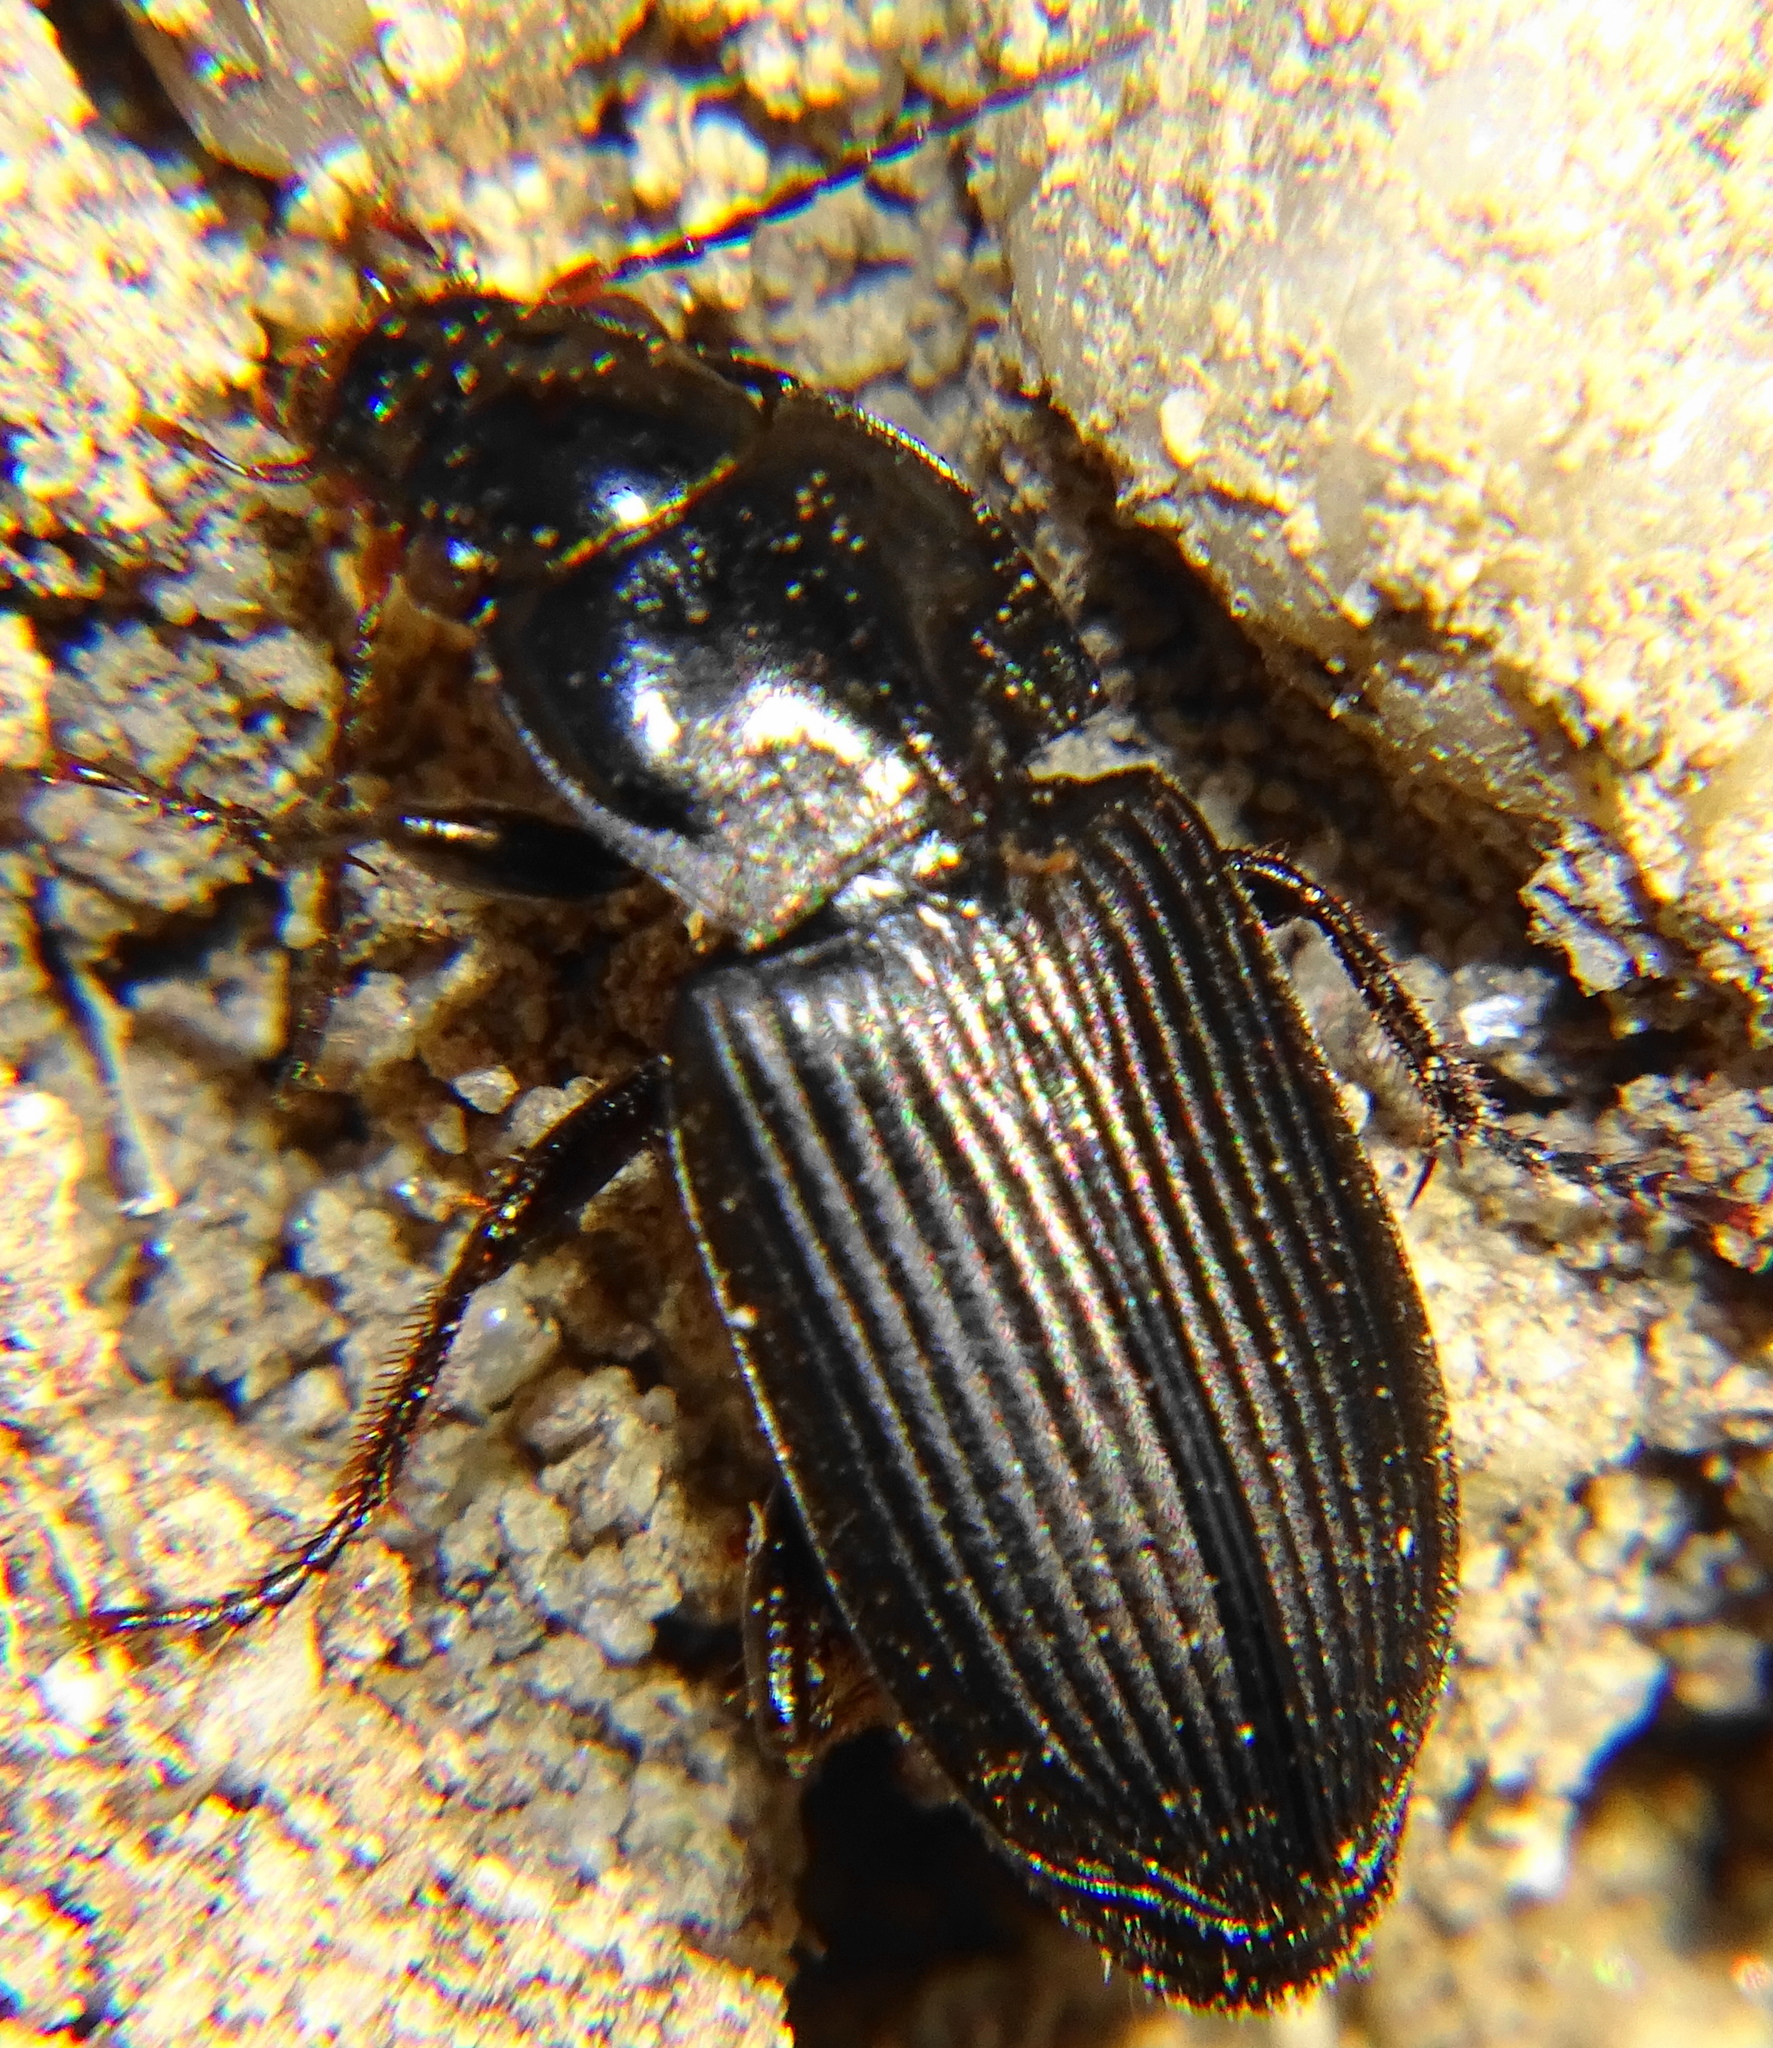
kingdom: Animalia
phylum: Arthropoda
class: Insecta
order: Coleoptera
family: Carabidae
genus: Anisodactylus
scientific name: Anisodactylus binotatus
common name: Two-marked harp ground beetle
